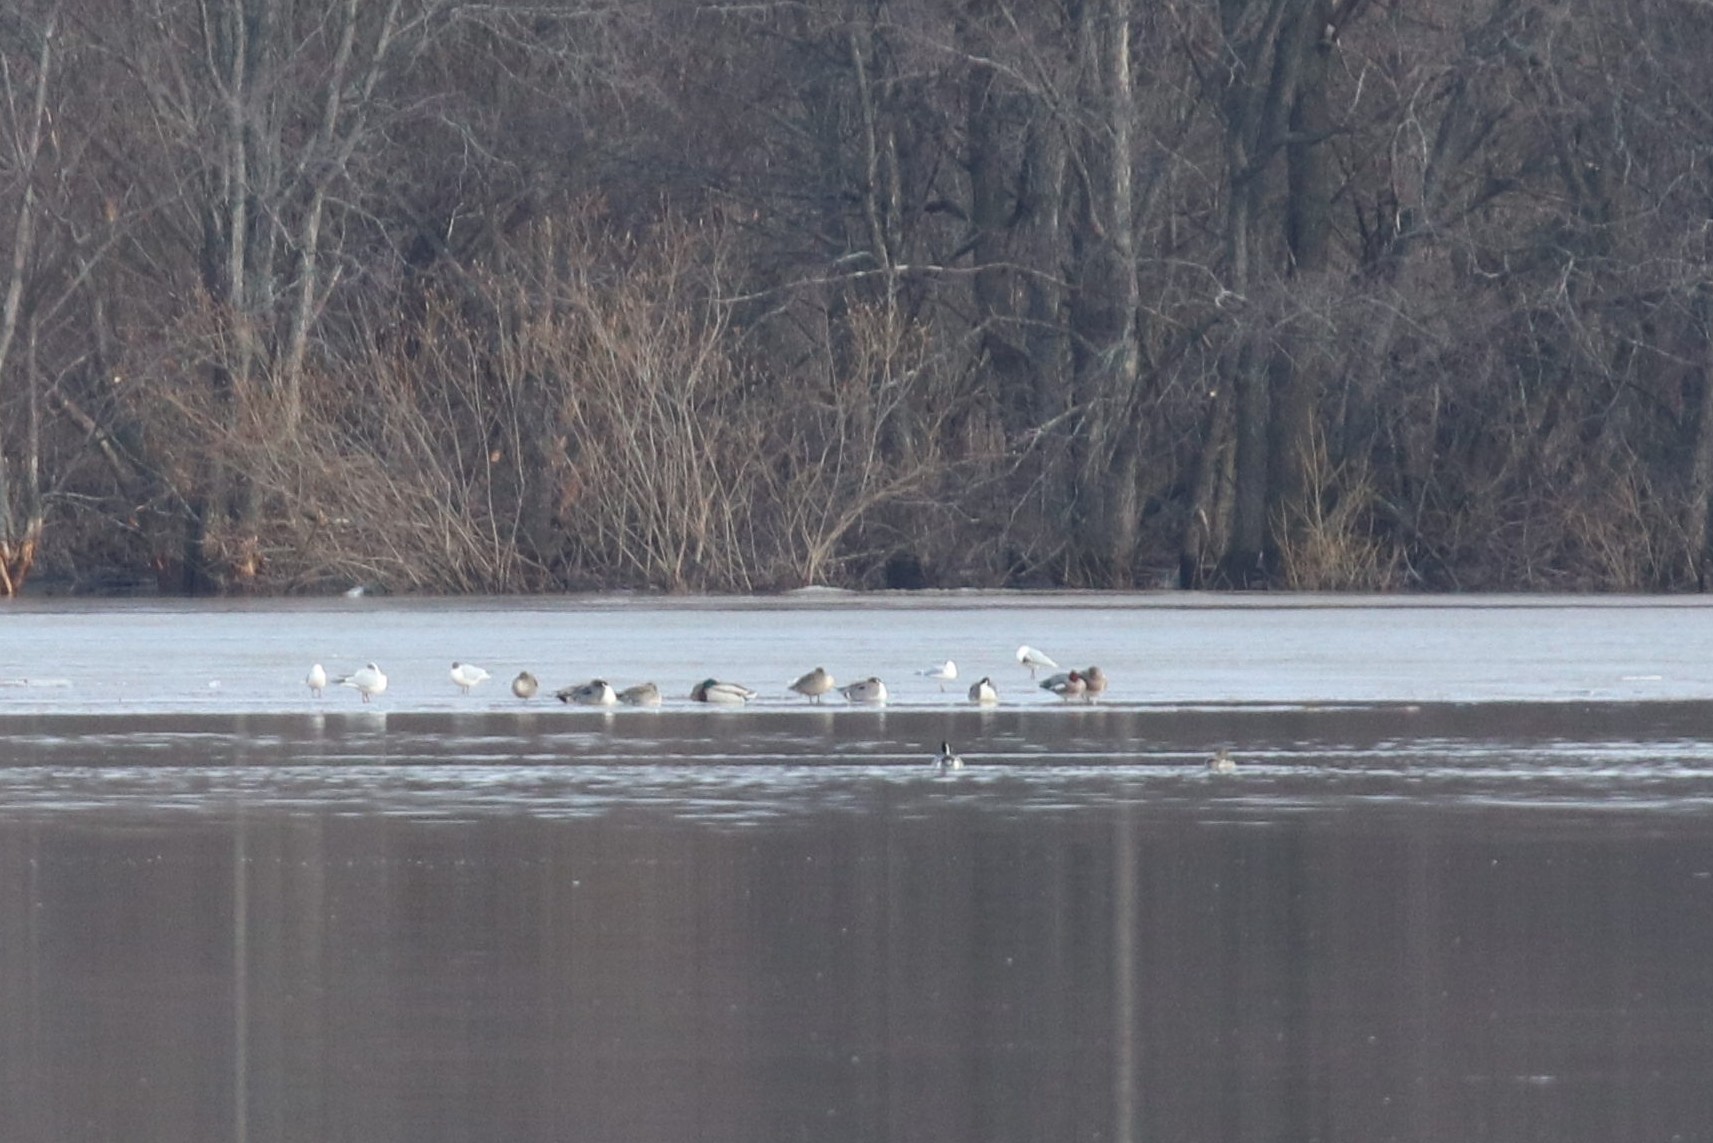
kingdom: Animalia
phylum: Chordata
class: Aves
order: Anseriformes
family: Anatidae
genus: Anas
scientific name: Anas acuta
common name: Northern pintail
